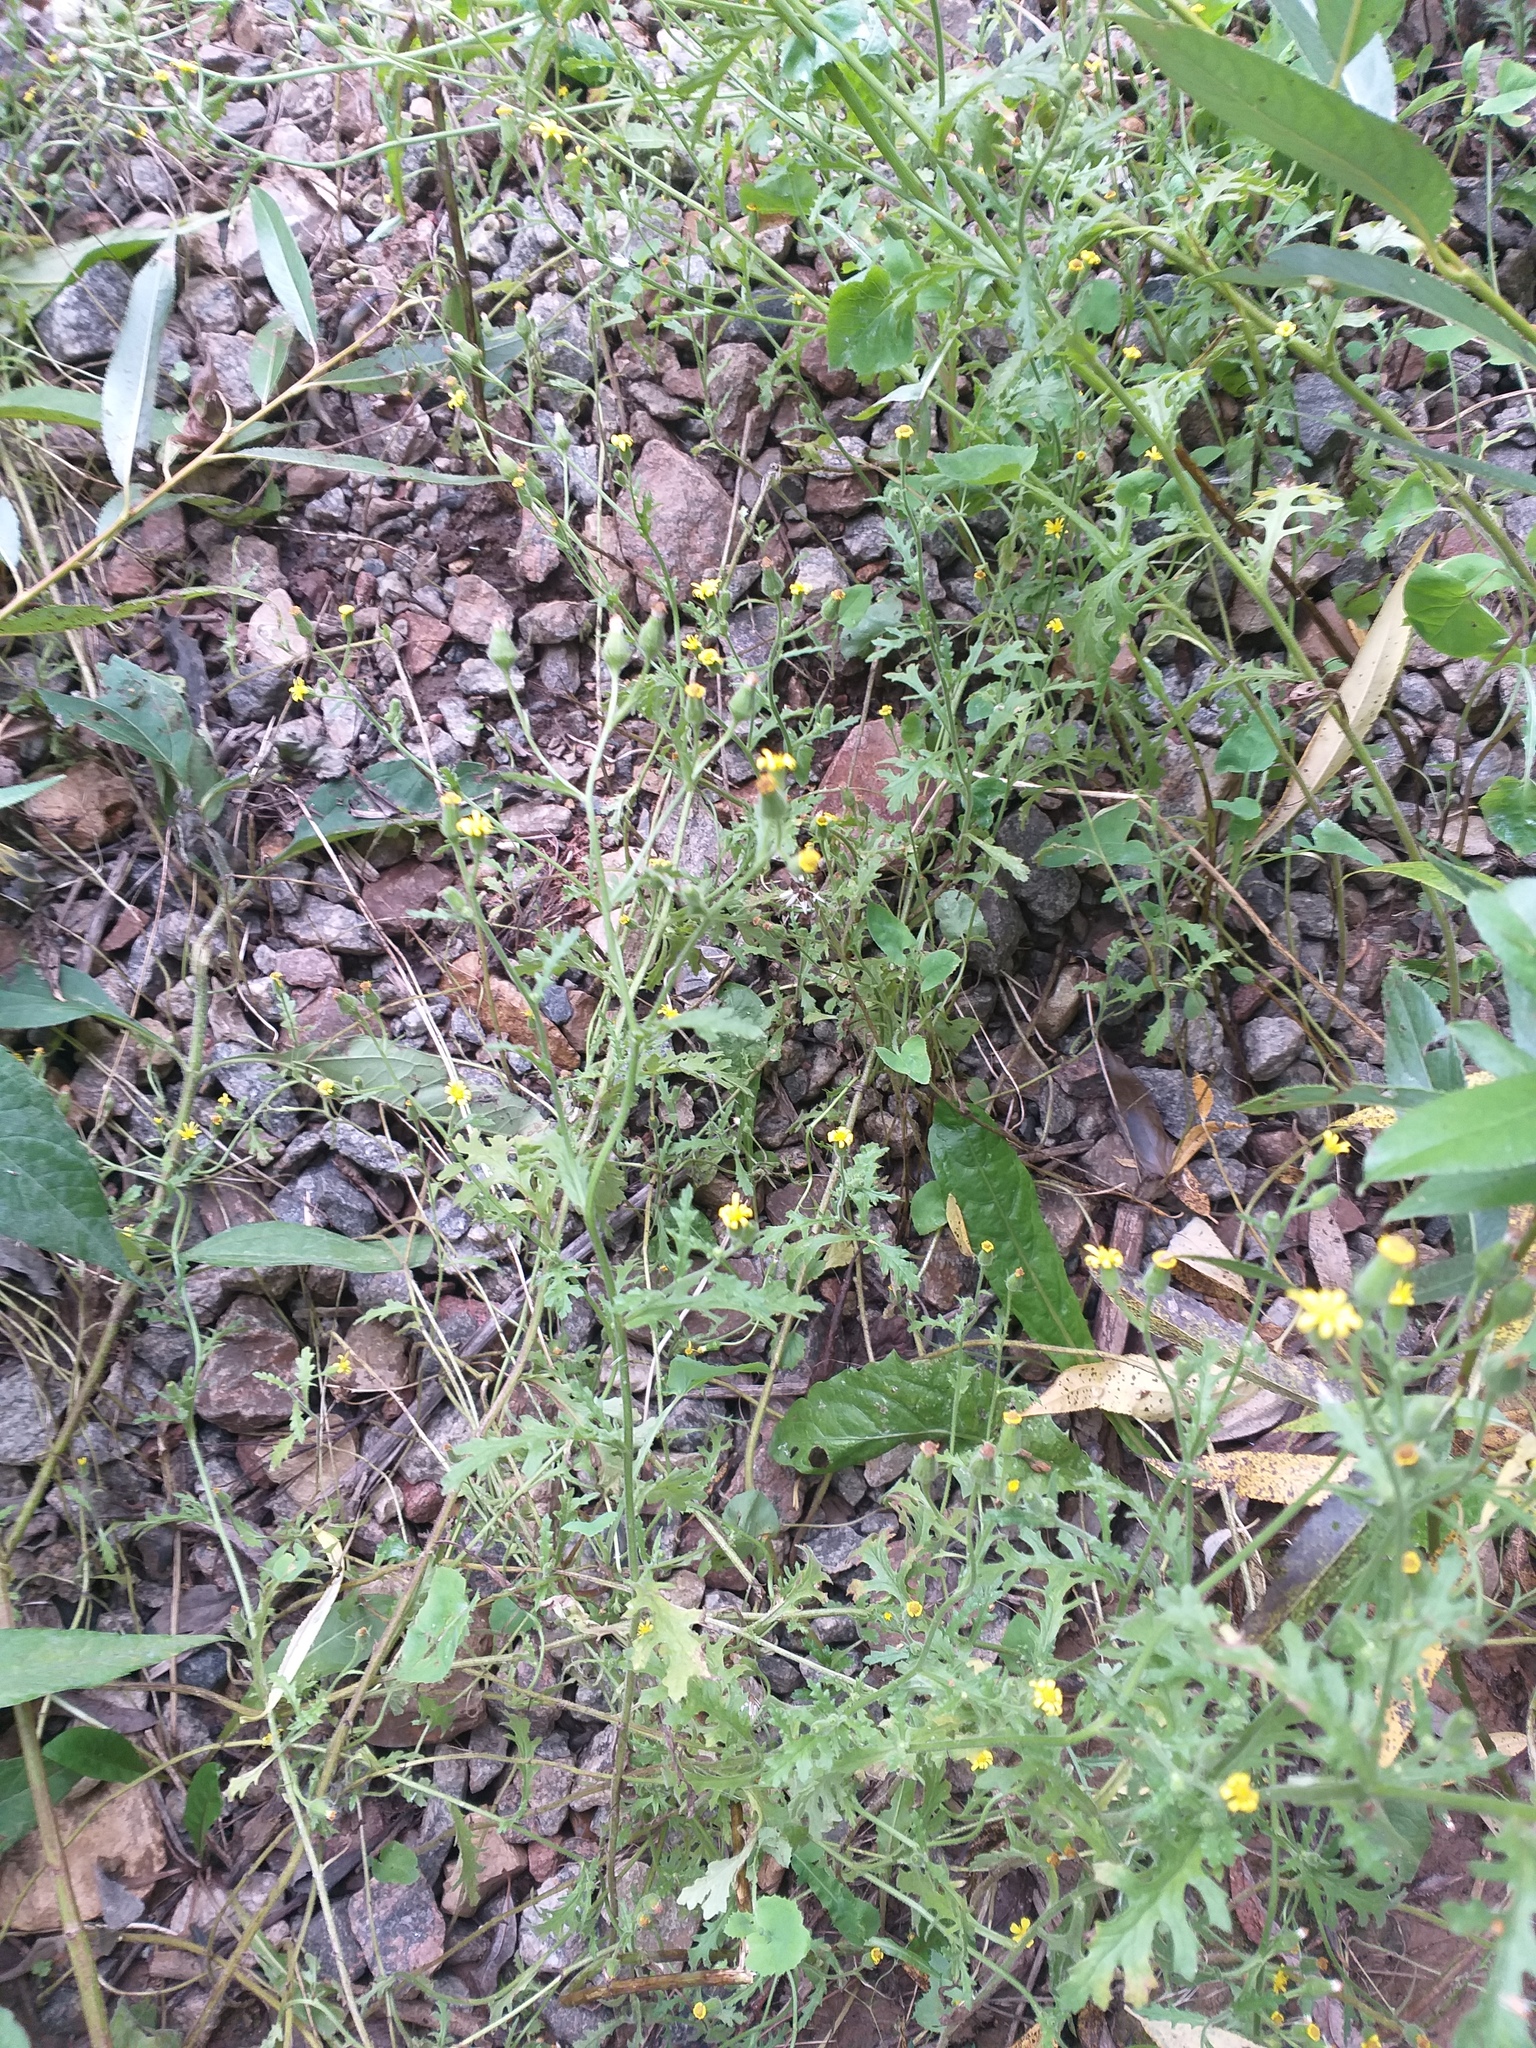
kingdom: Plantae
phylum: Tracheophyta
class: Magnoliopsida
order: Asterales
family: Asteraceae
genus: Senecio
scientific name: Senecio viscosus
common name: Sticky groundsel
